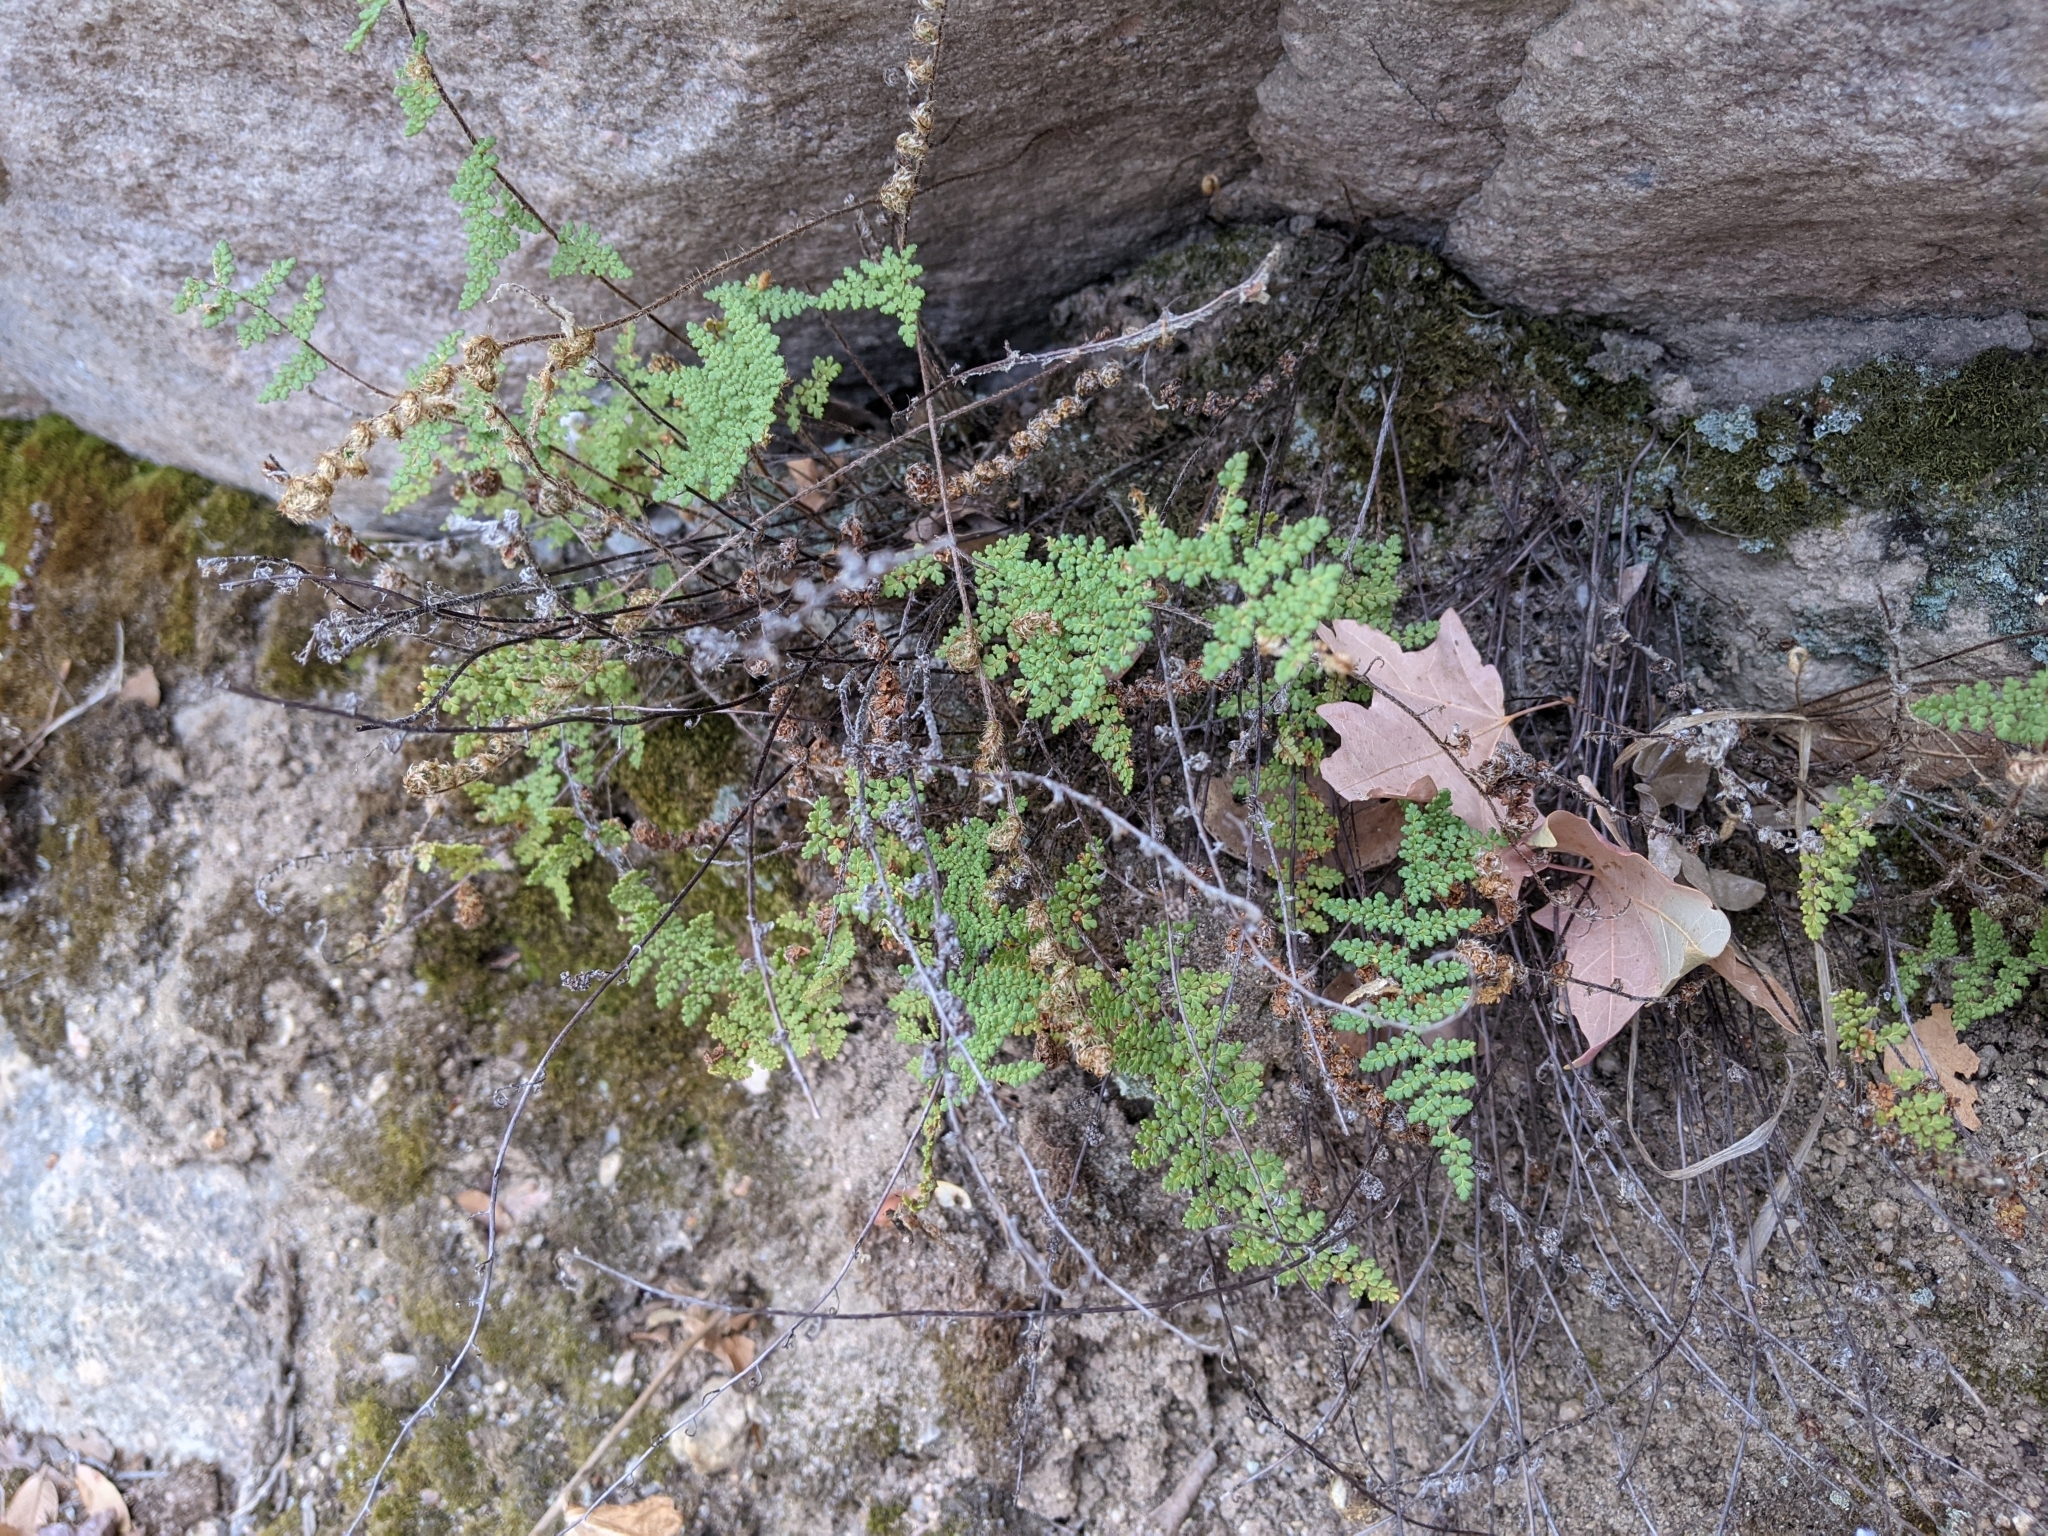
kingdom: Plantae
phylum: Tracheophyta
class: Polypodiopsida
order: Polypodiales
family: Pteridaceae
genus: Myriopteris
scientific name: Myriopteris fendleri
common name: Fendler's lip fern
